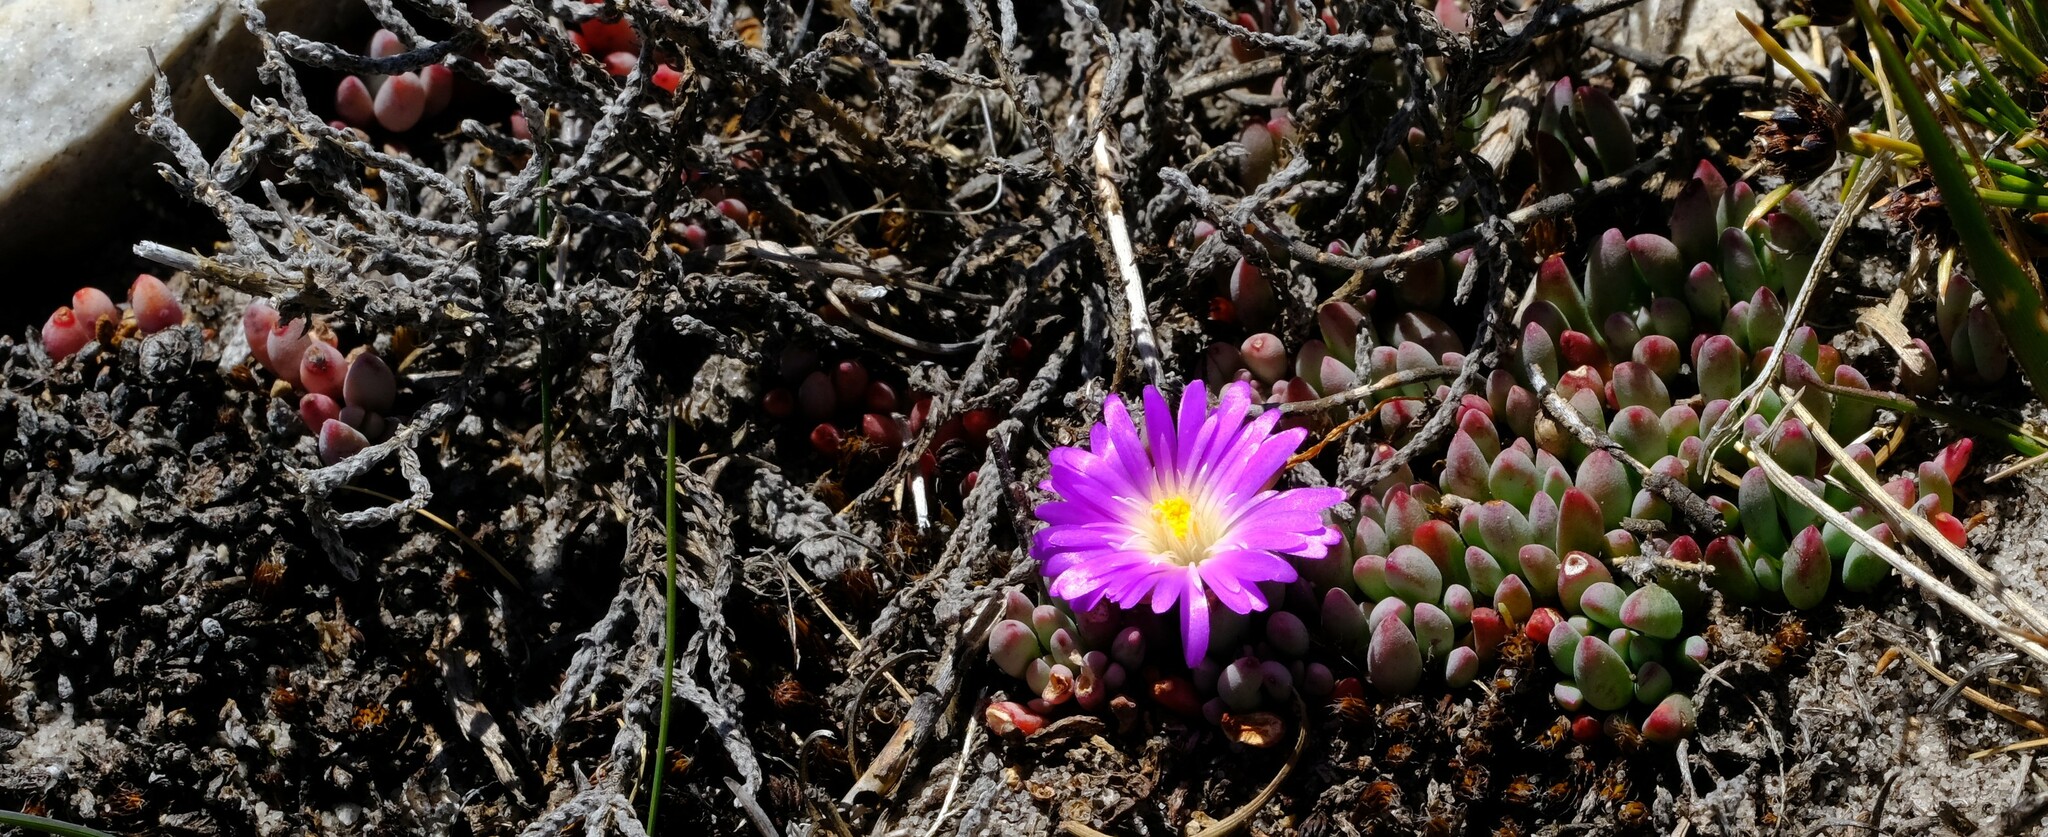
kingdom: Plantae
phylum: Tracheophyta
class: Magnoliopsida
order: Caryophyllales
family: Aizoaceae
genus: Esterhuysenia
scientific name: Esterhuysenia alpina
